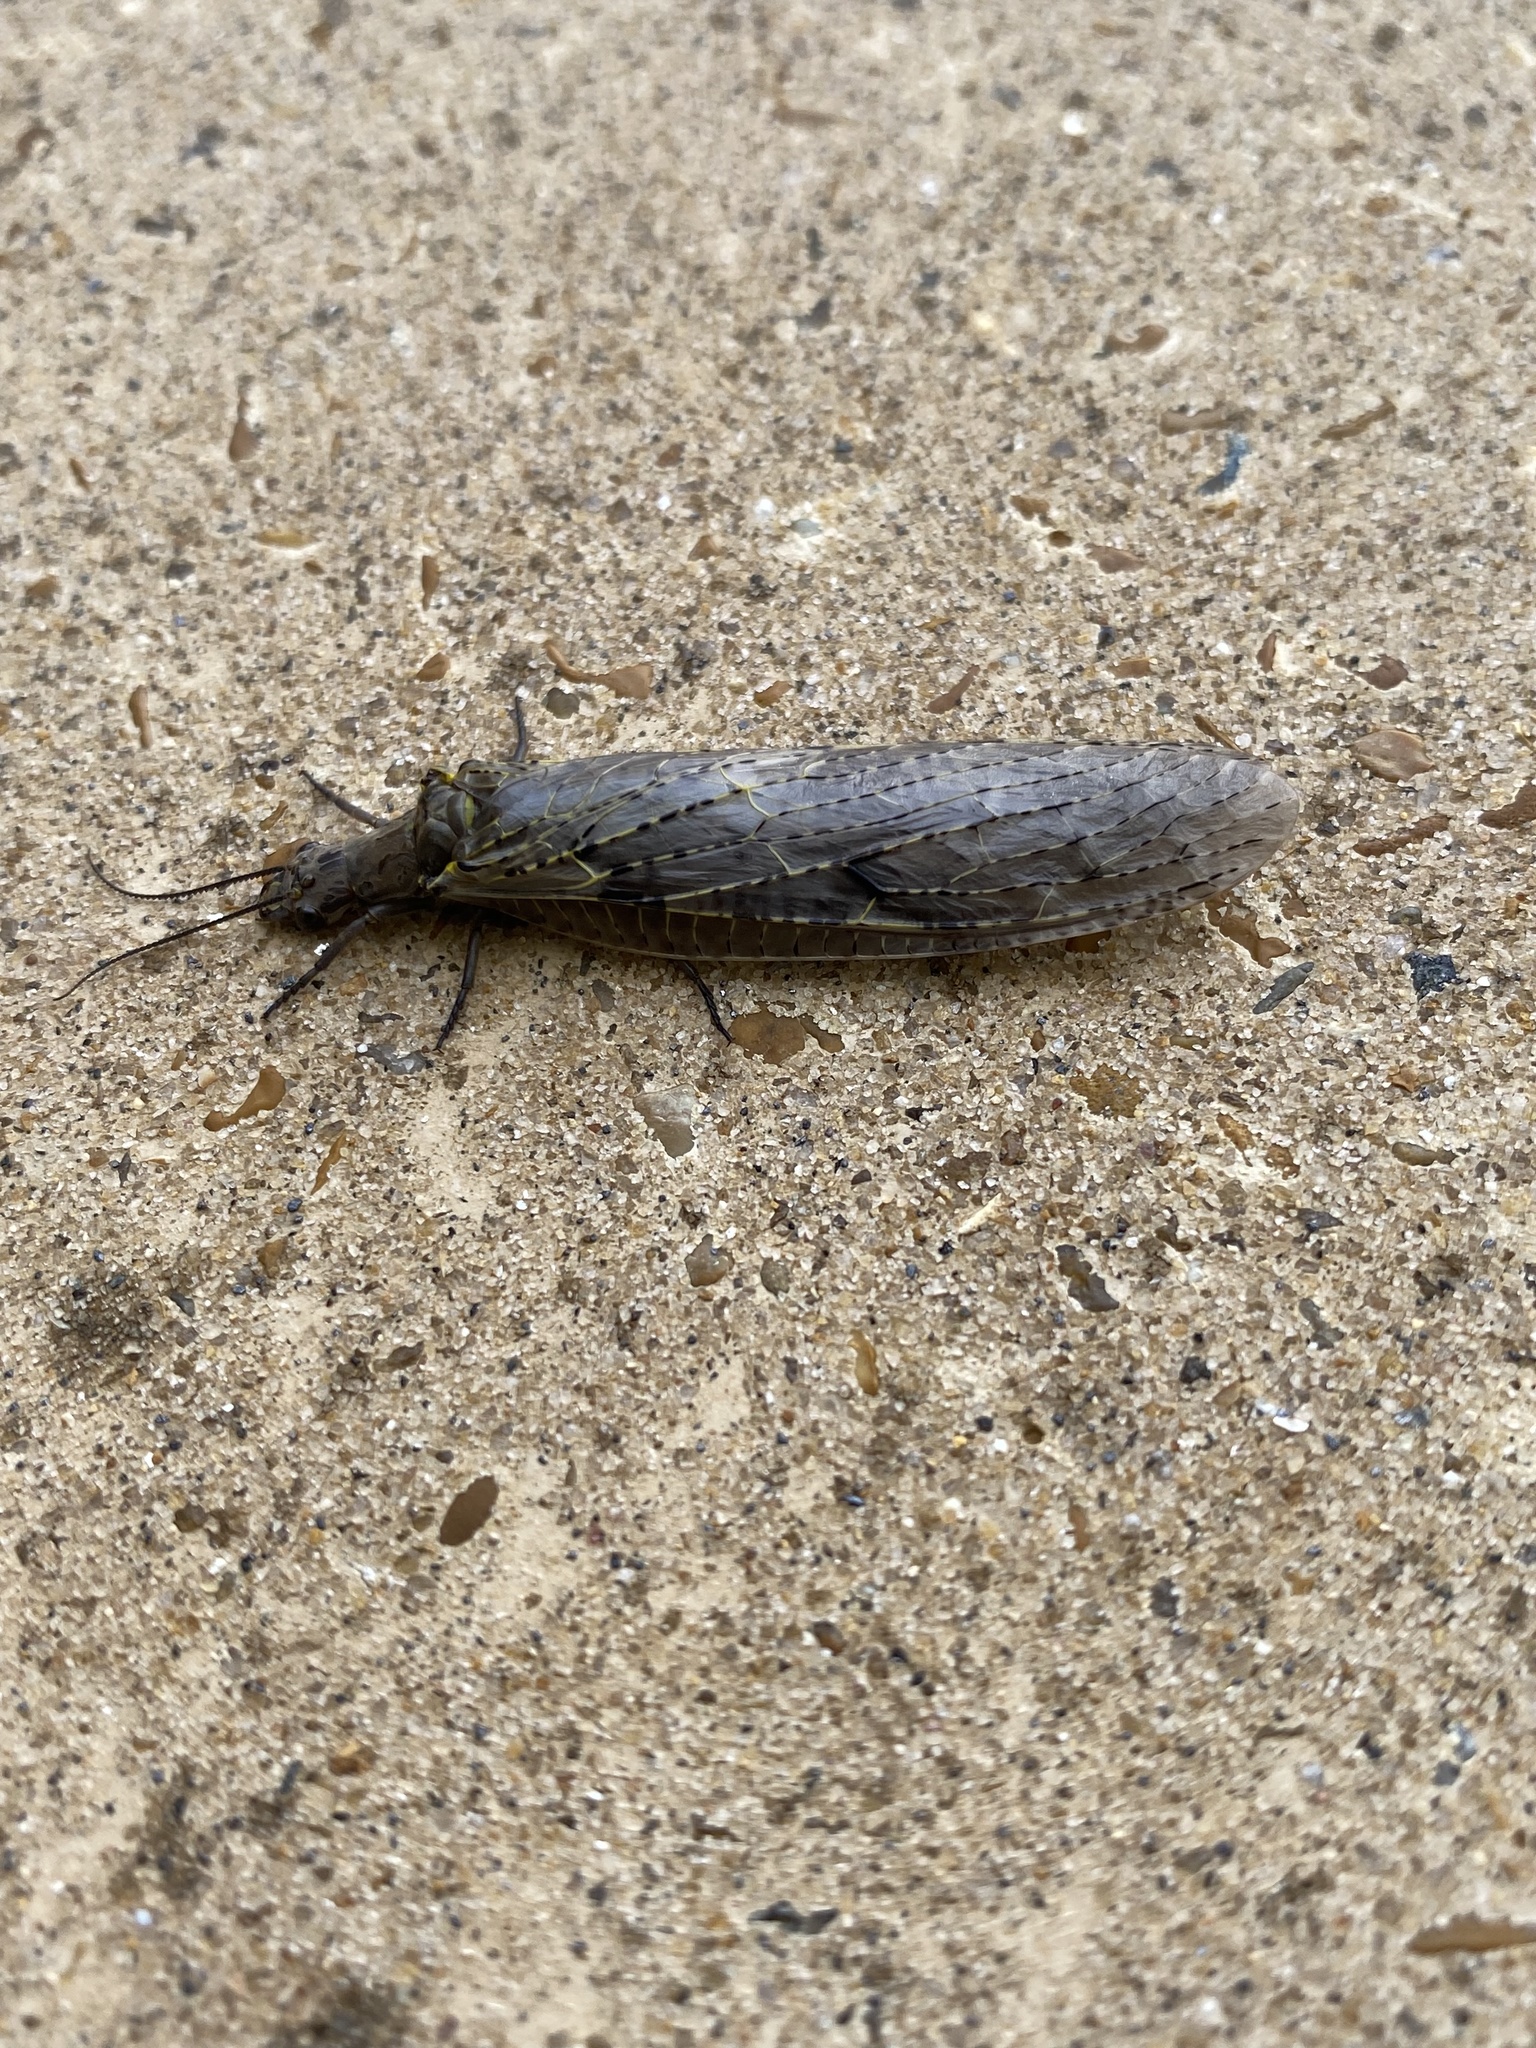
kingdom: Animalia
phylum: Arthropoda
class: Insecta
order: Megaloptera
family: Corydalidae
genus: Chauliodes
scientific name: Chauliodes rastricornis
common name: Spring fishfly
